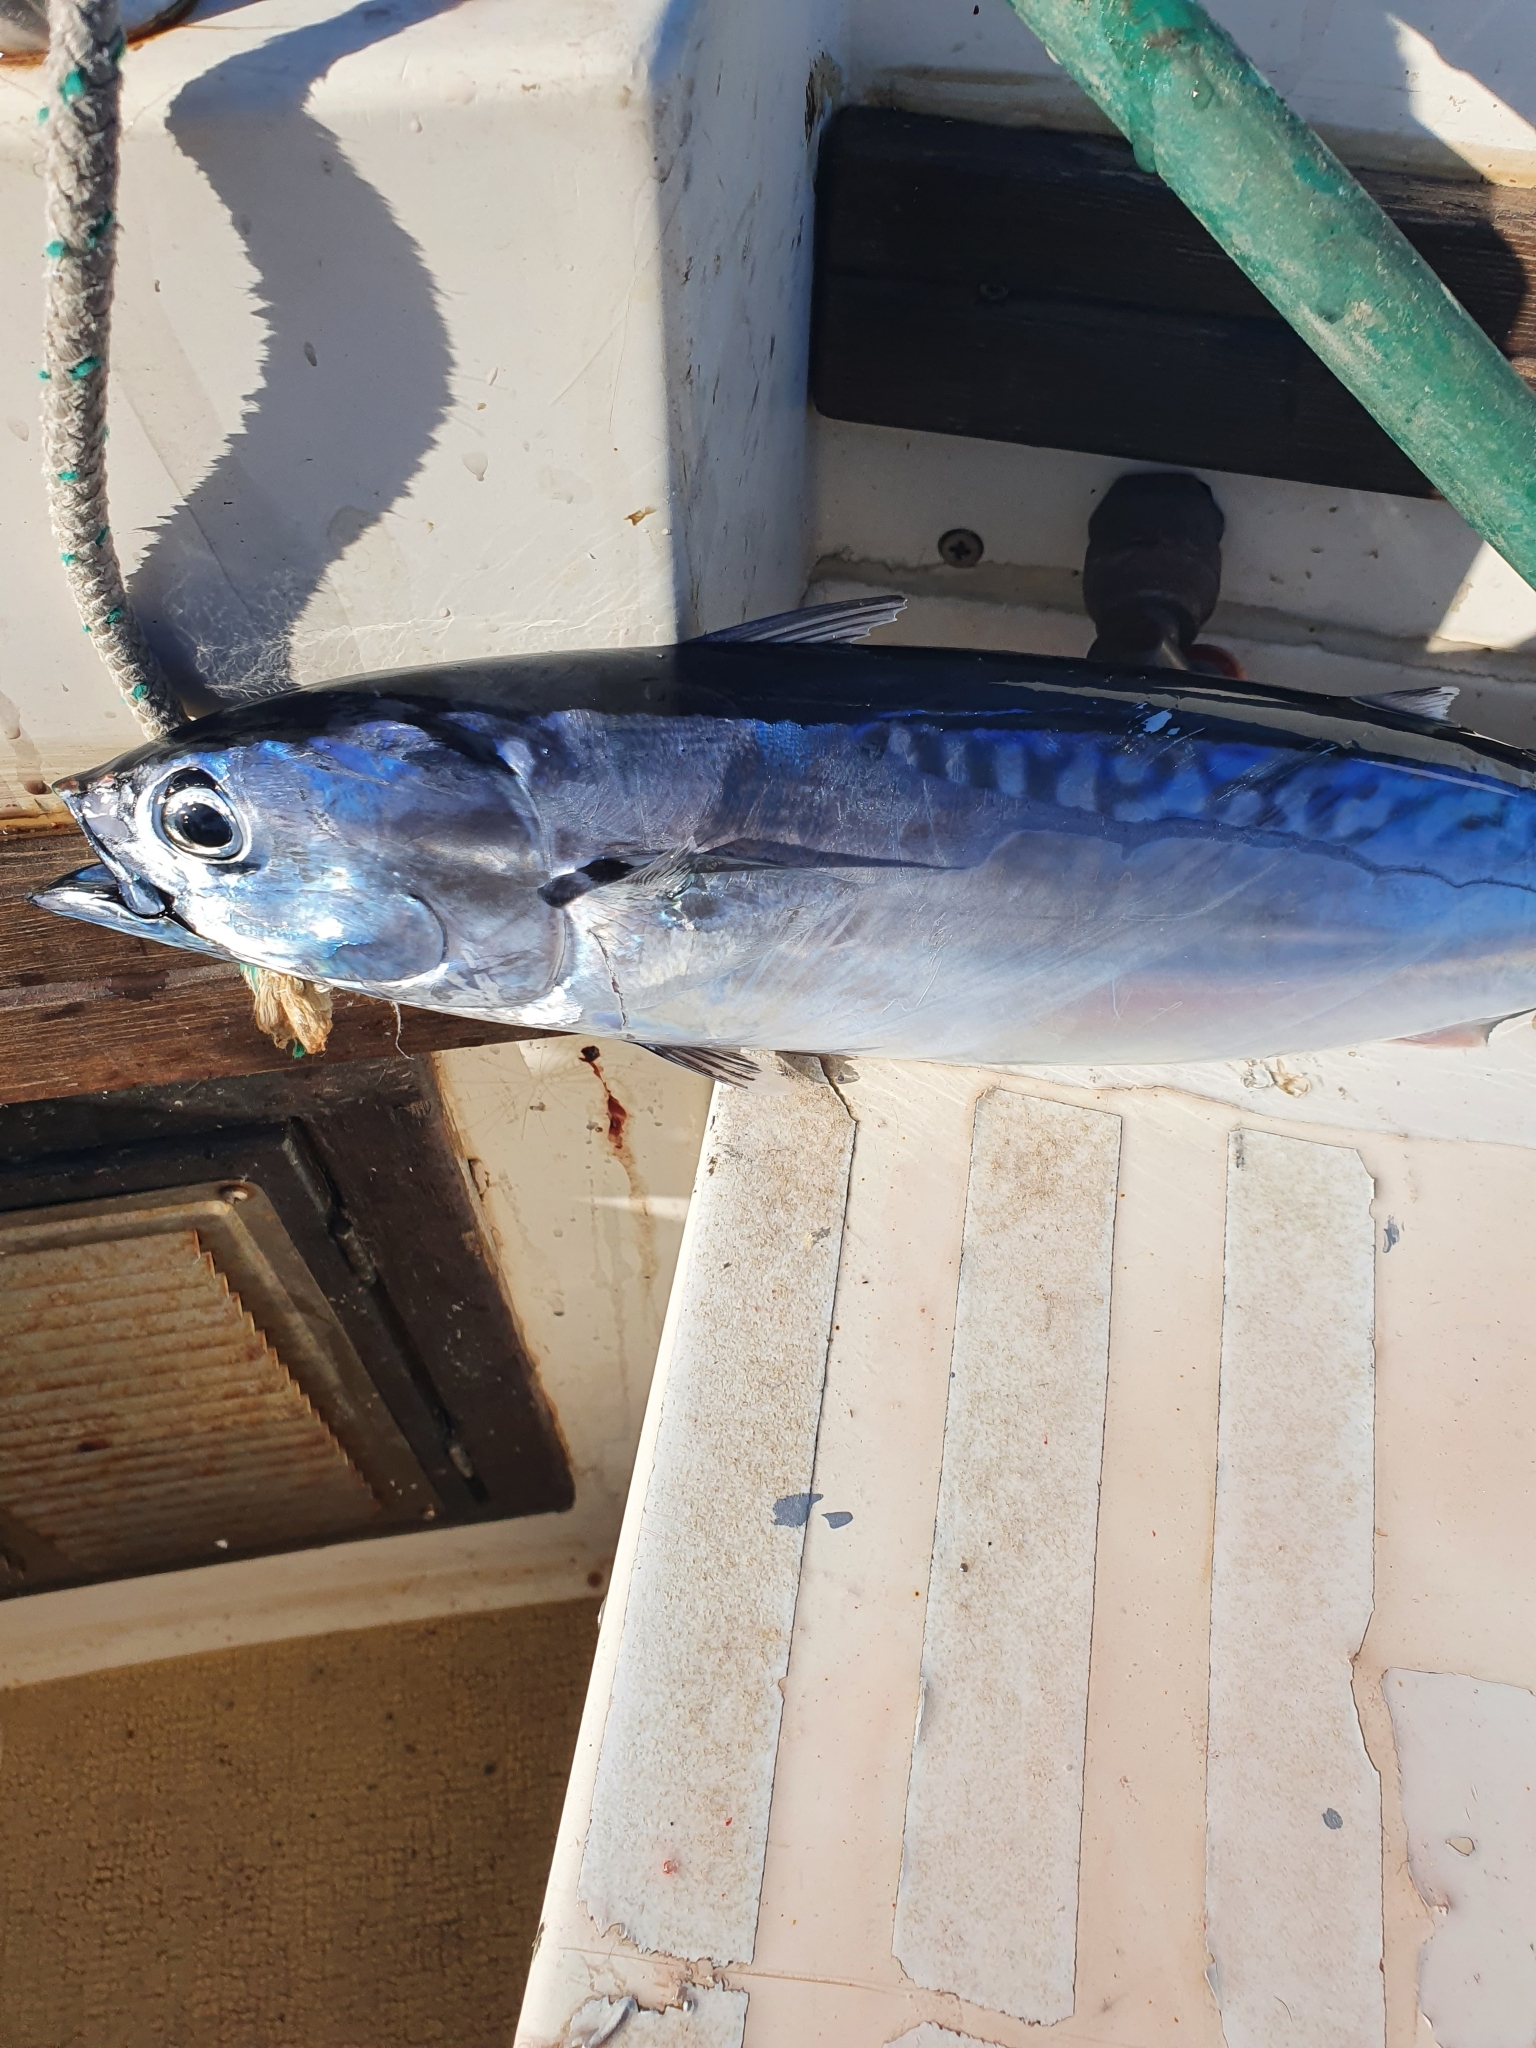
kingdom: Animalia
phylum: Chordata
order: Perciformes
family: Scombridae
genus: Auxis
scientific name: Auxis rochei
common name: Bullet tuna
